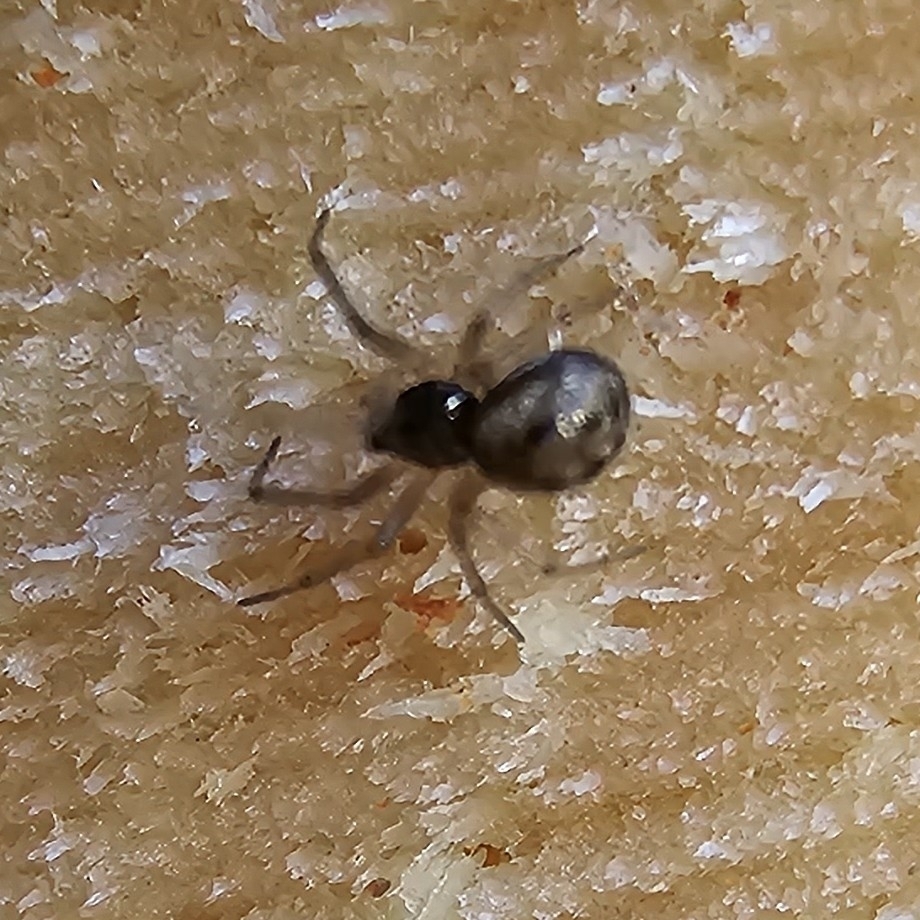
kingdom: Animalia
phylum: Arthropoda
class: Arachnida
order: Araneae
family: Theridiidae
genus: Steatoda
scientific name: Steatoda triangulosa
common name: Triangulate bud spider
